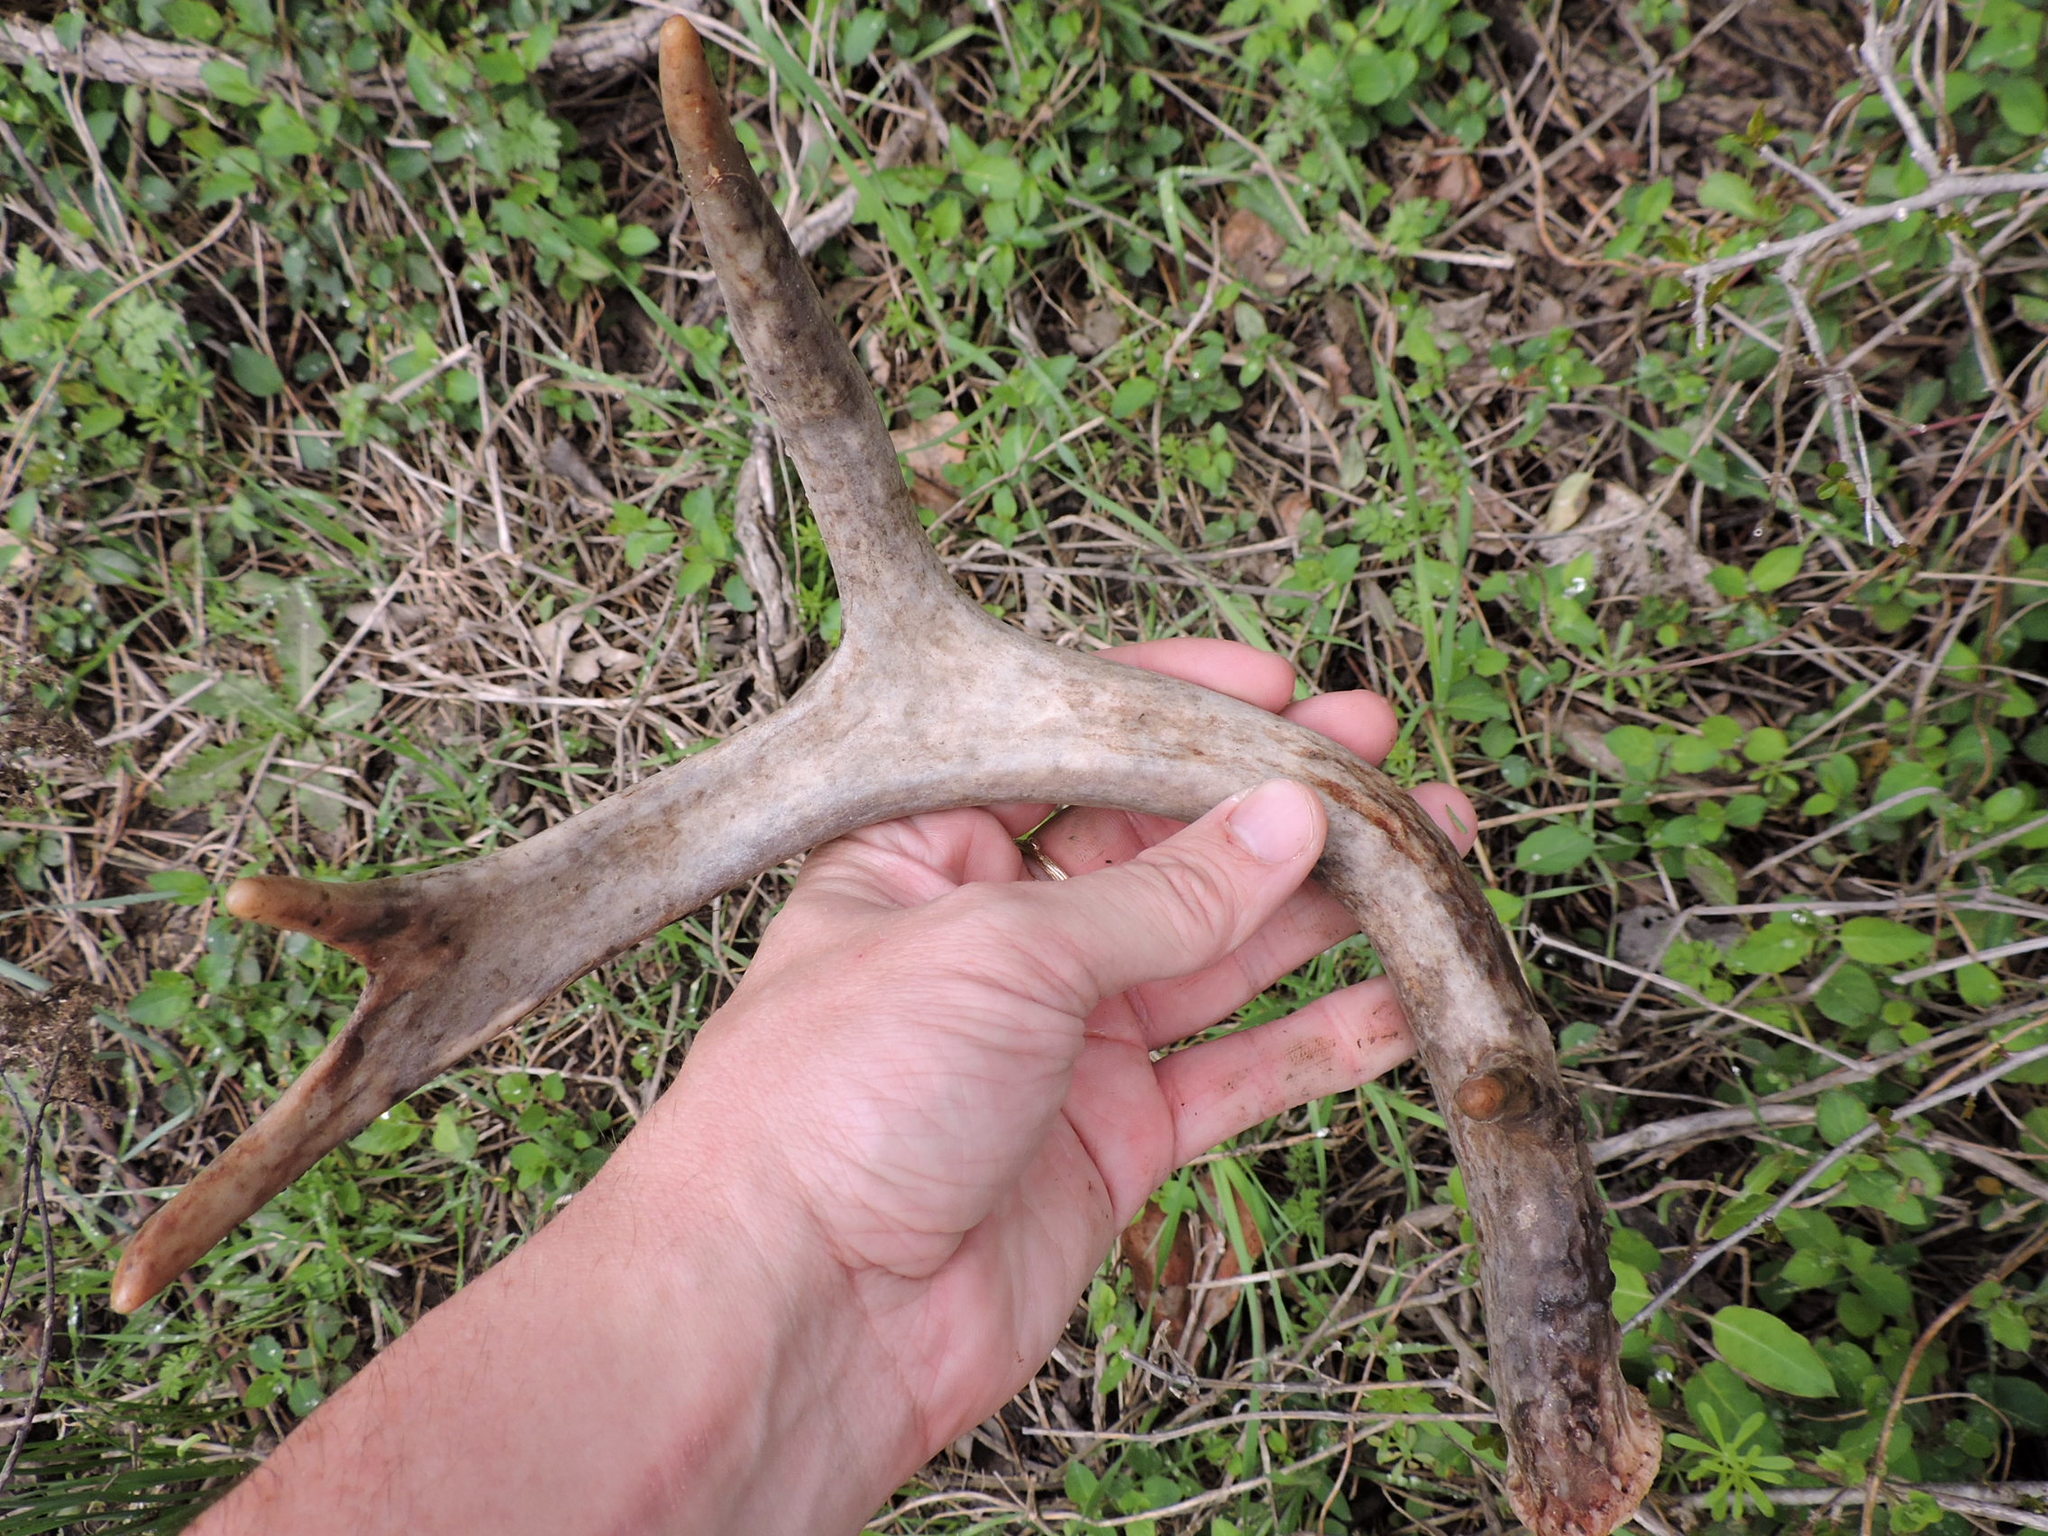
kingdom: Animalia
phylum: Chordata
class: Mammalia
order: Artiodactyla
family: Cervidae
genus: Odocoileus
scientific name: Odocoileus virginianus
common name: White-tailed deer
